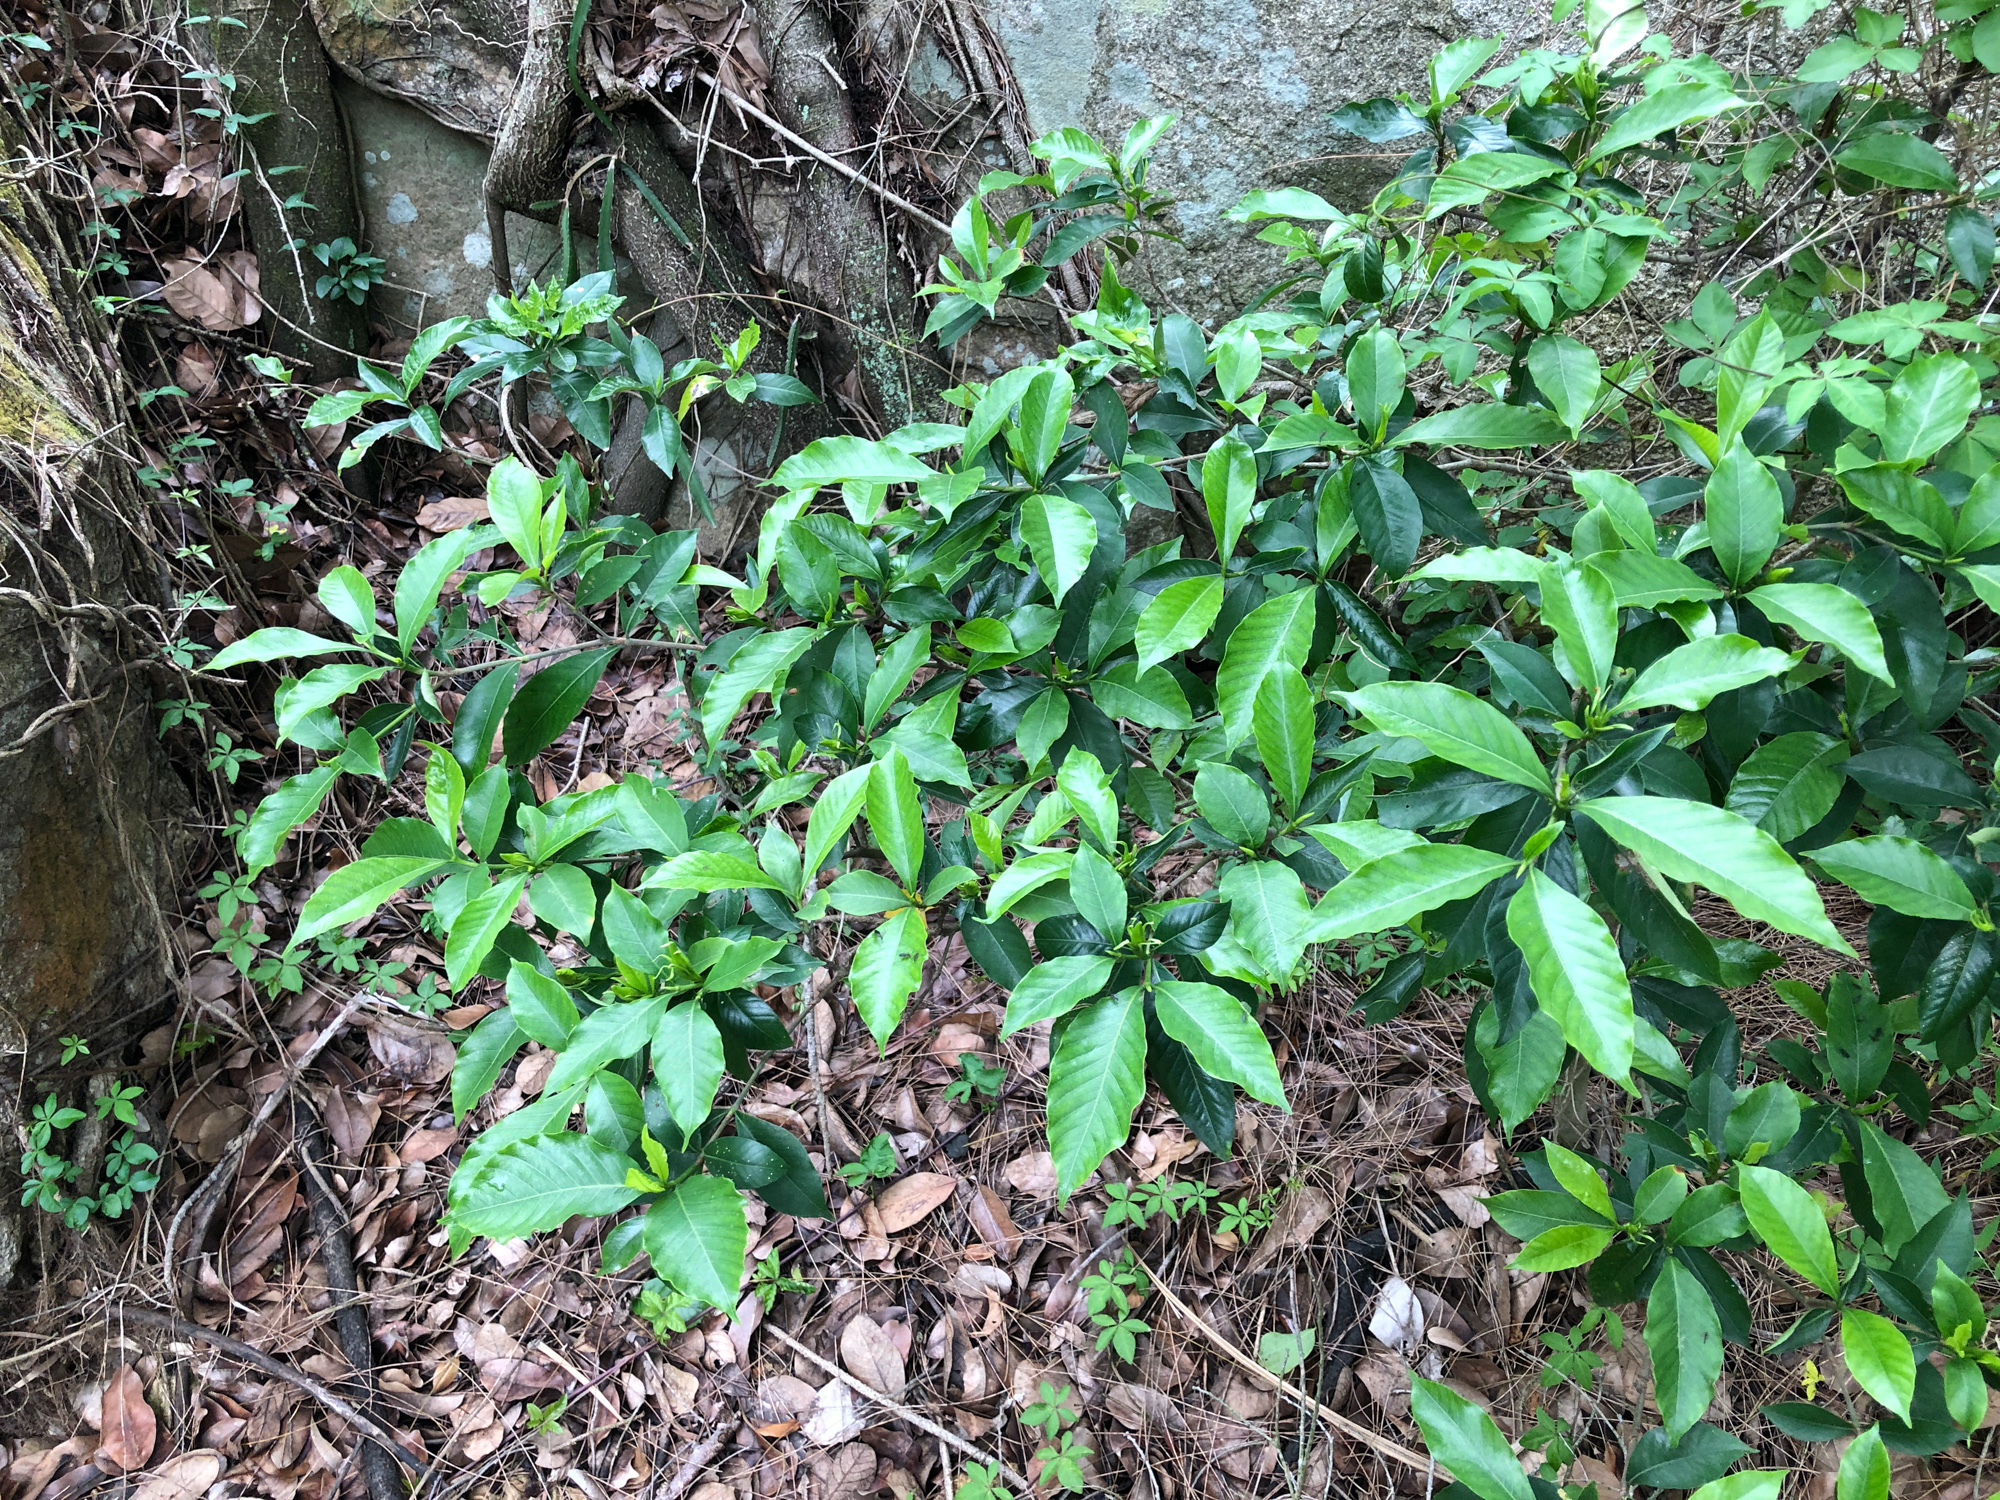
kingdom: Plantae
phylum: Tracheophyta
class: Magnoliopsida
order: Gentianales
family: Rubiaceae
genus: Gardenia
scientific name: Gardenia jasminoides
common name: Cape-jasmine
